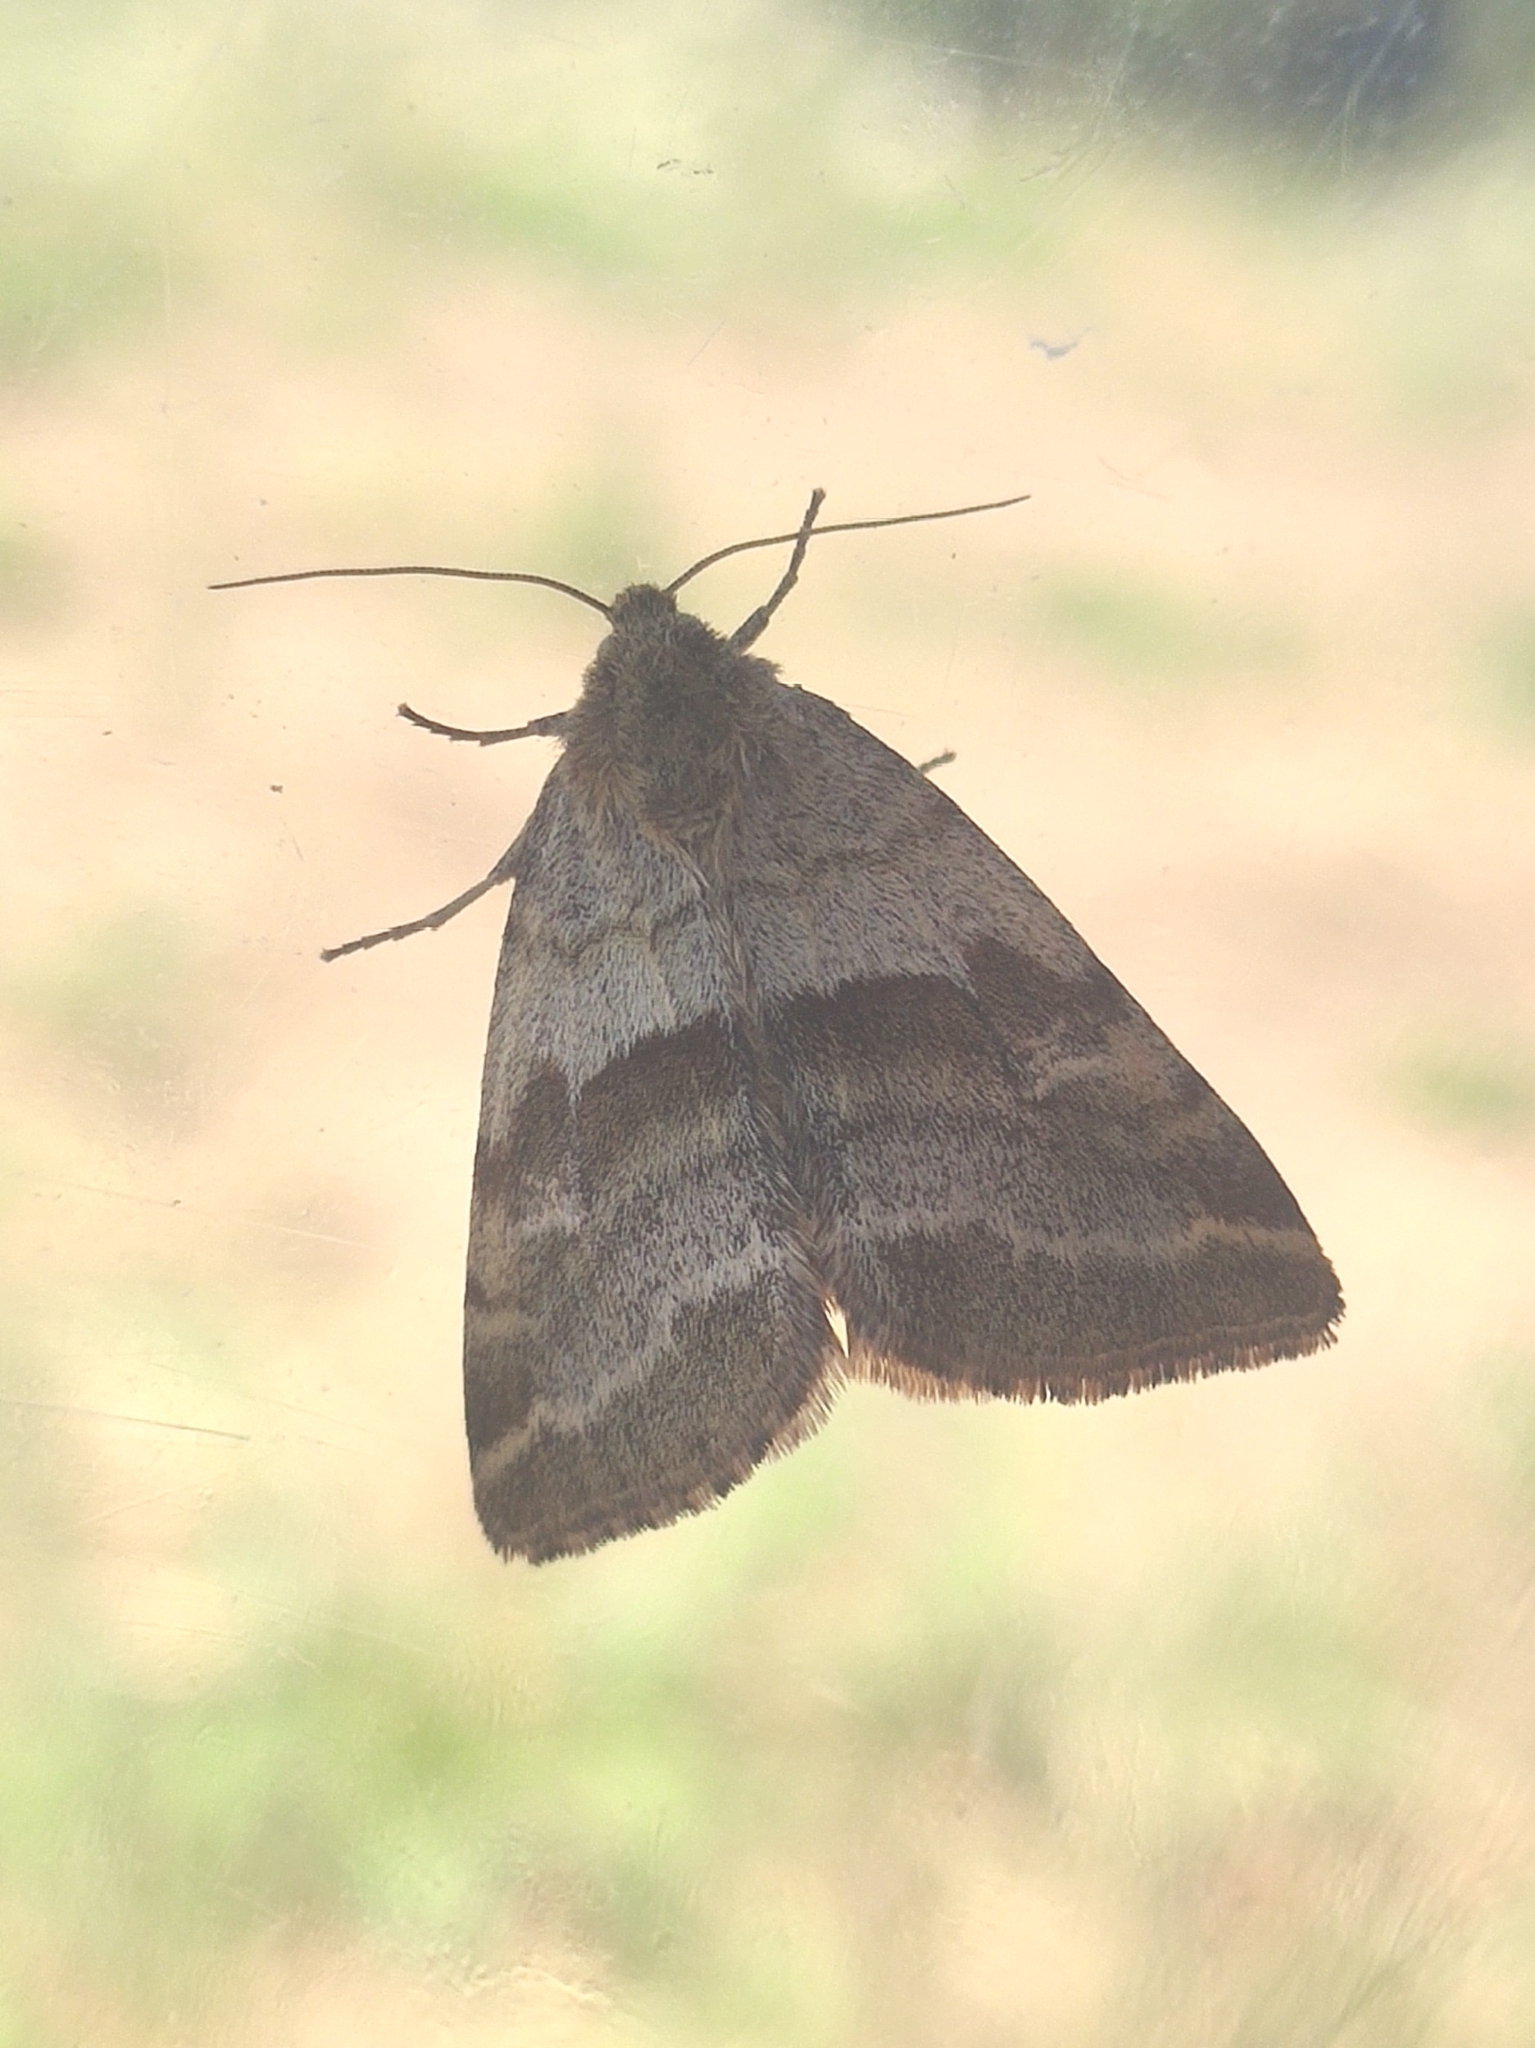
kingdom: Animalia
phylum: Arthropoda
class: Insecta
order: Lepidoptera
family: Noctuidae
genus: Synthymia
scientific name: Synthymia fixa
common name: Goldwing
